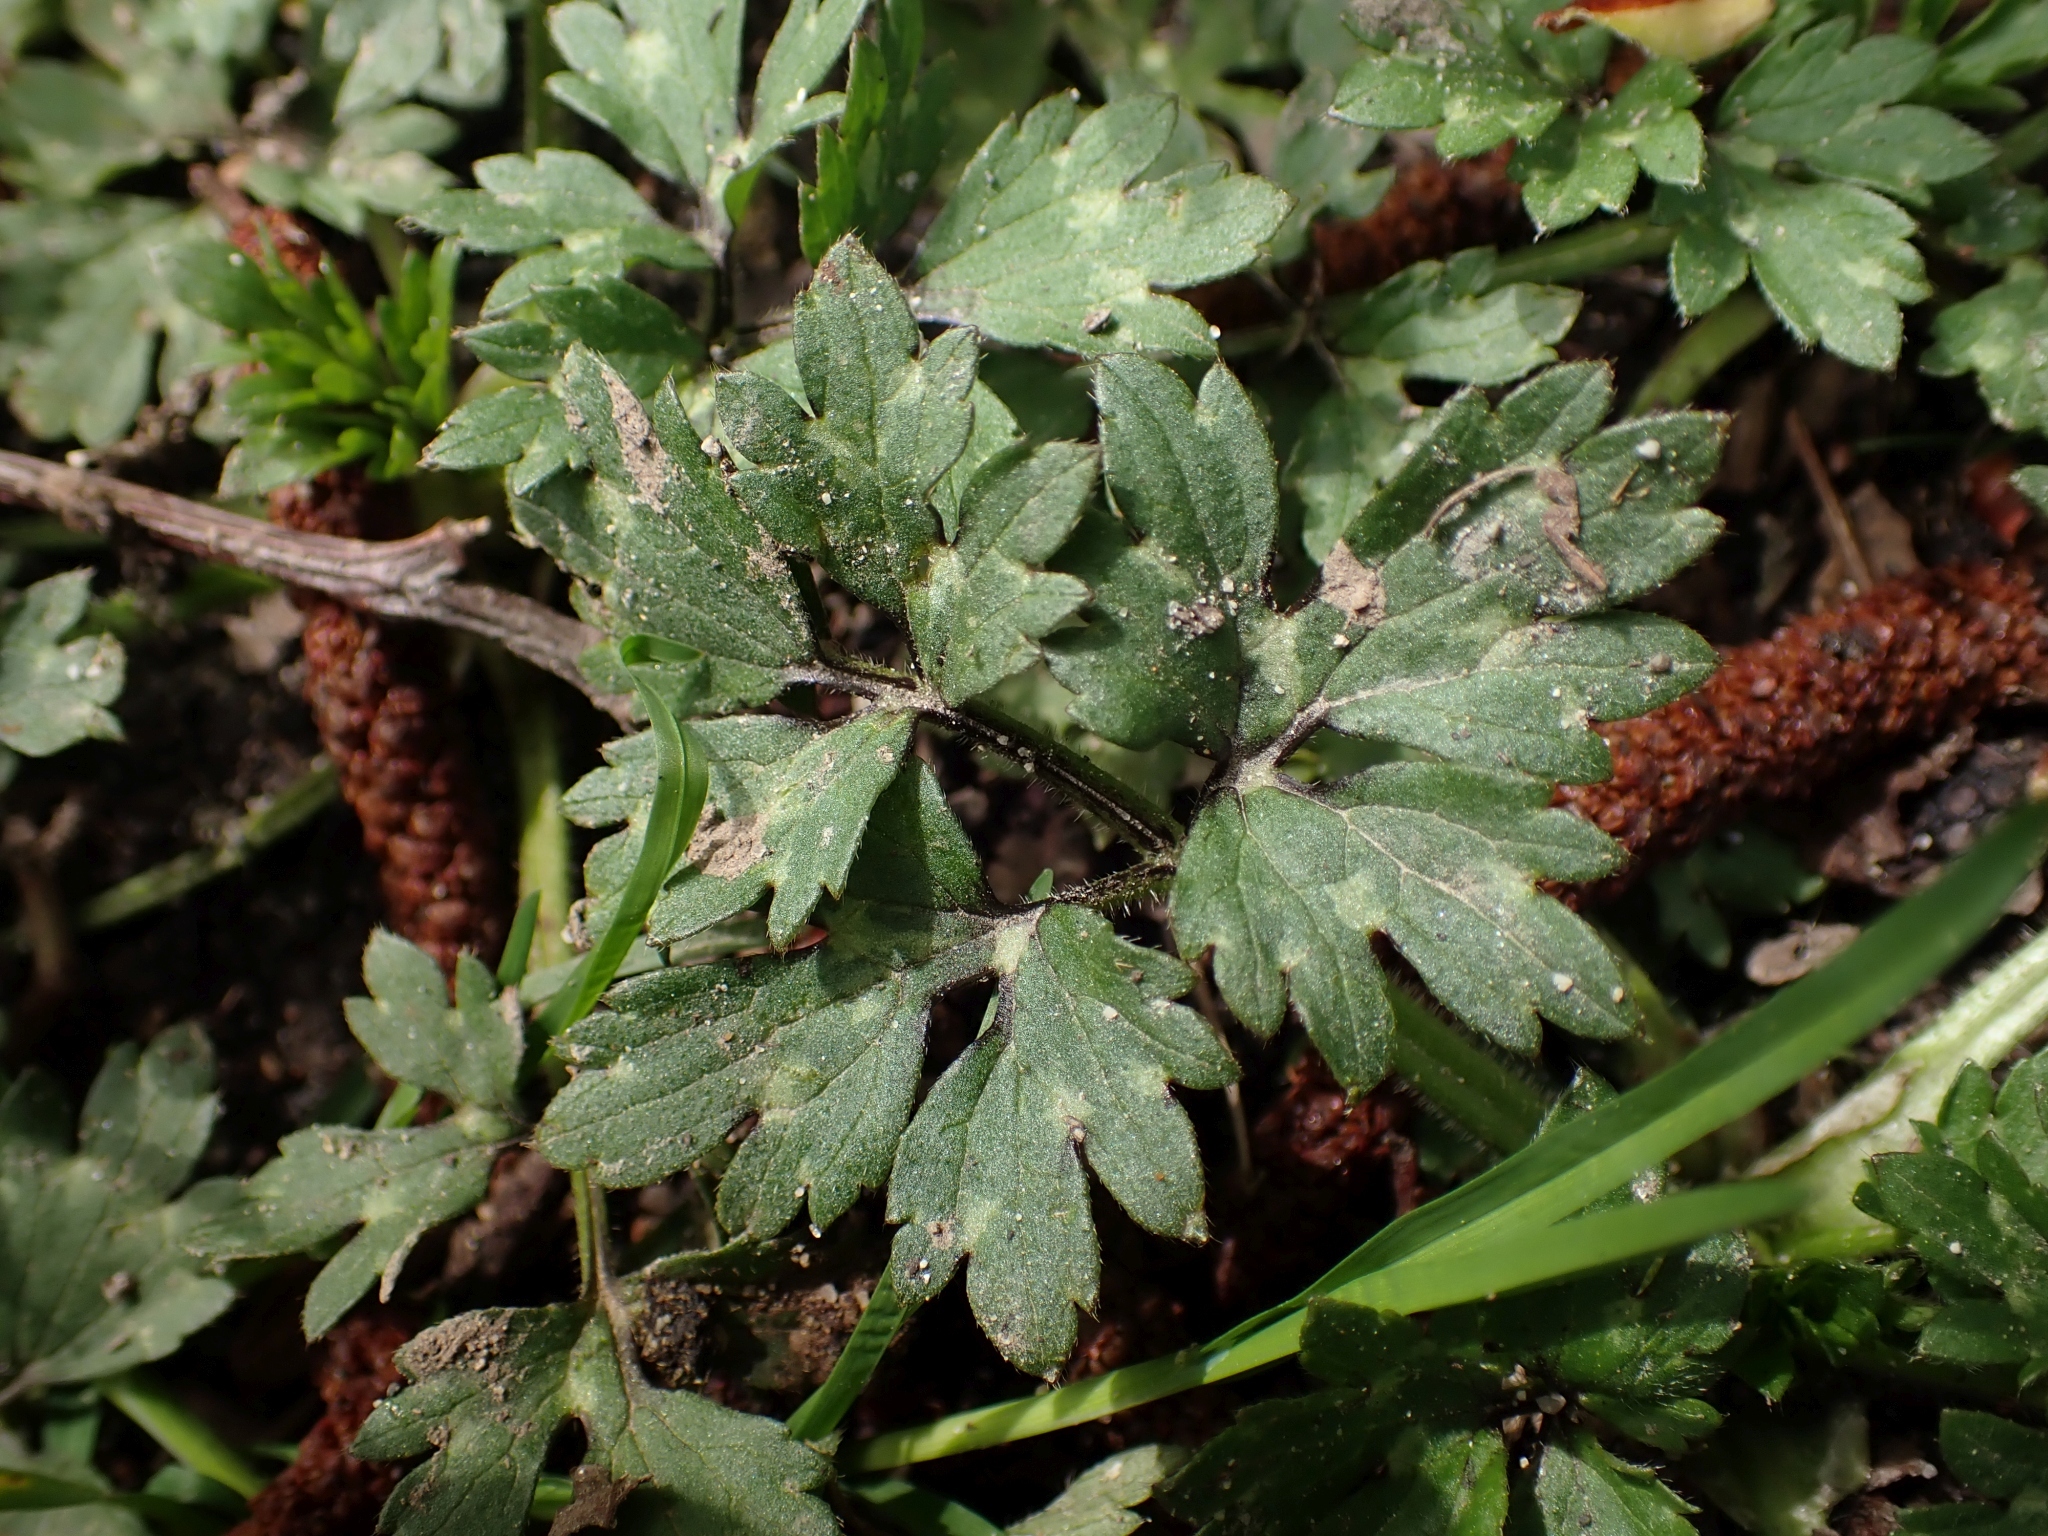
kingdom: Plantae
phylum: Tracheophyta
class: Magnoliopsida
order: Ranunculales
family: Ranunculaceae
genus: Ranunculus
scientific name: Ranunculus repens
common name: Creeping buttercup
